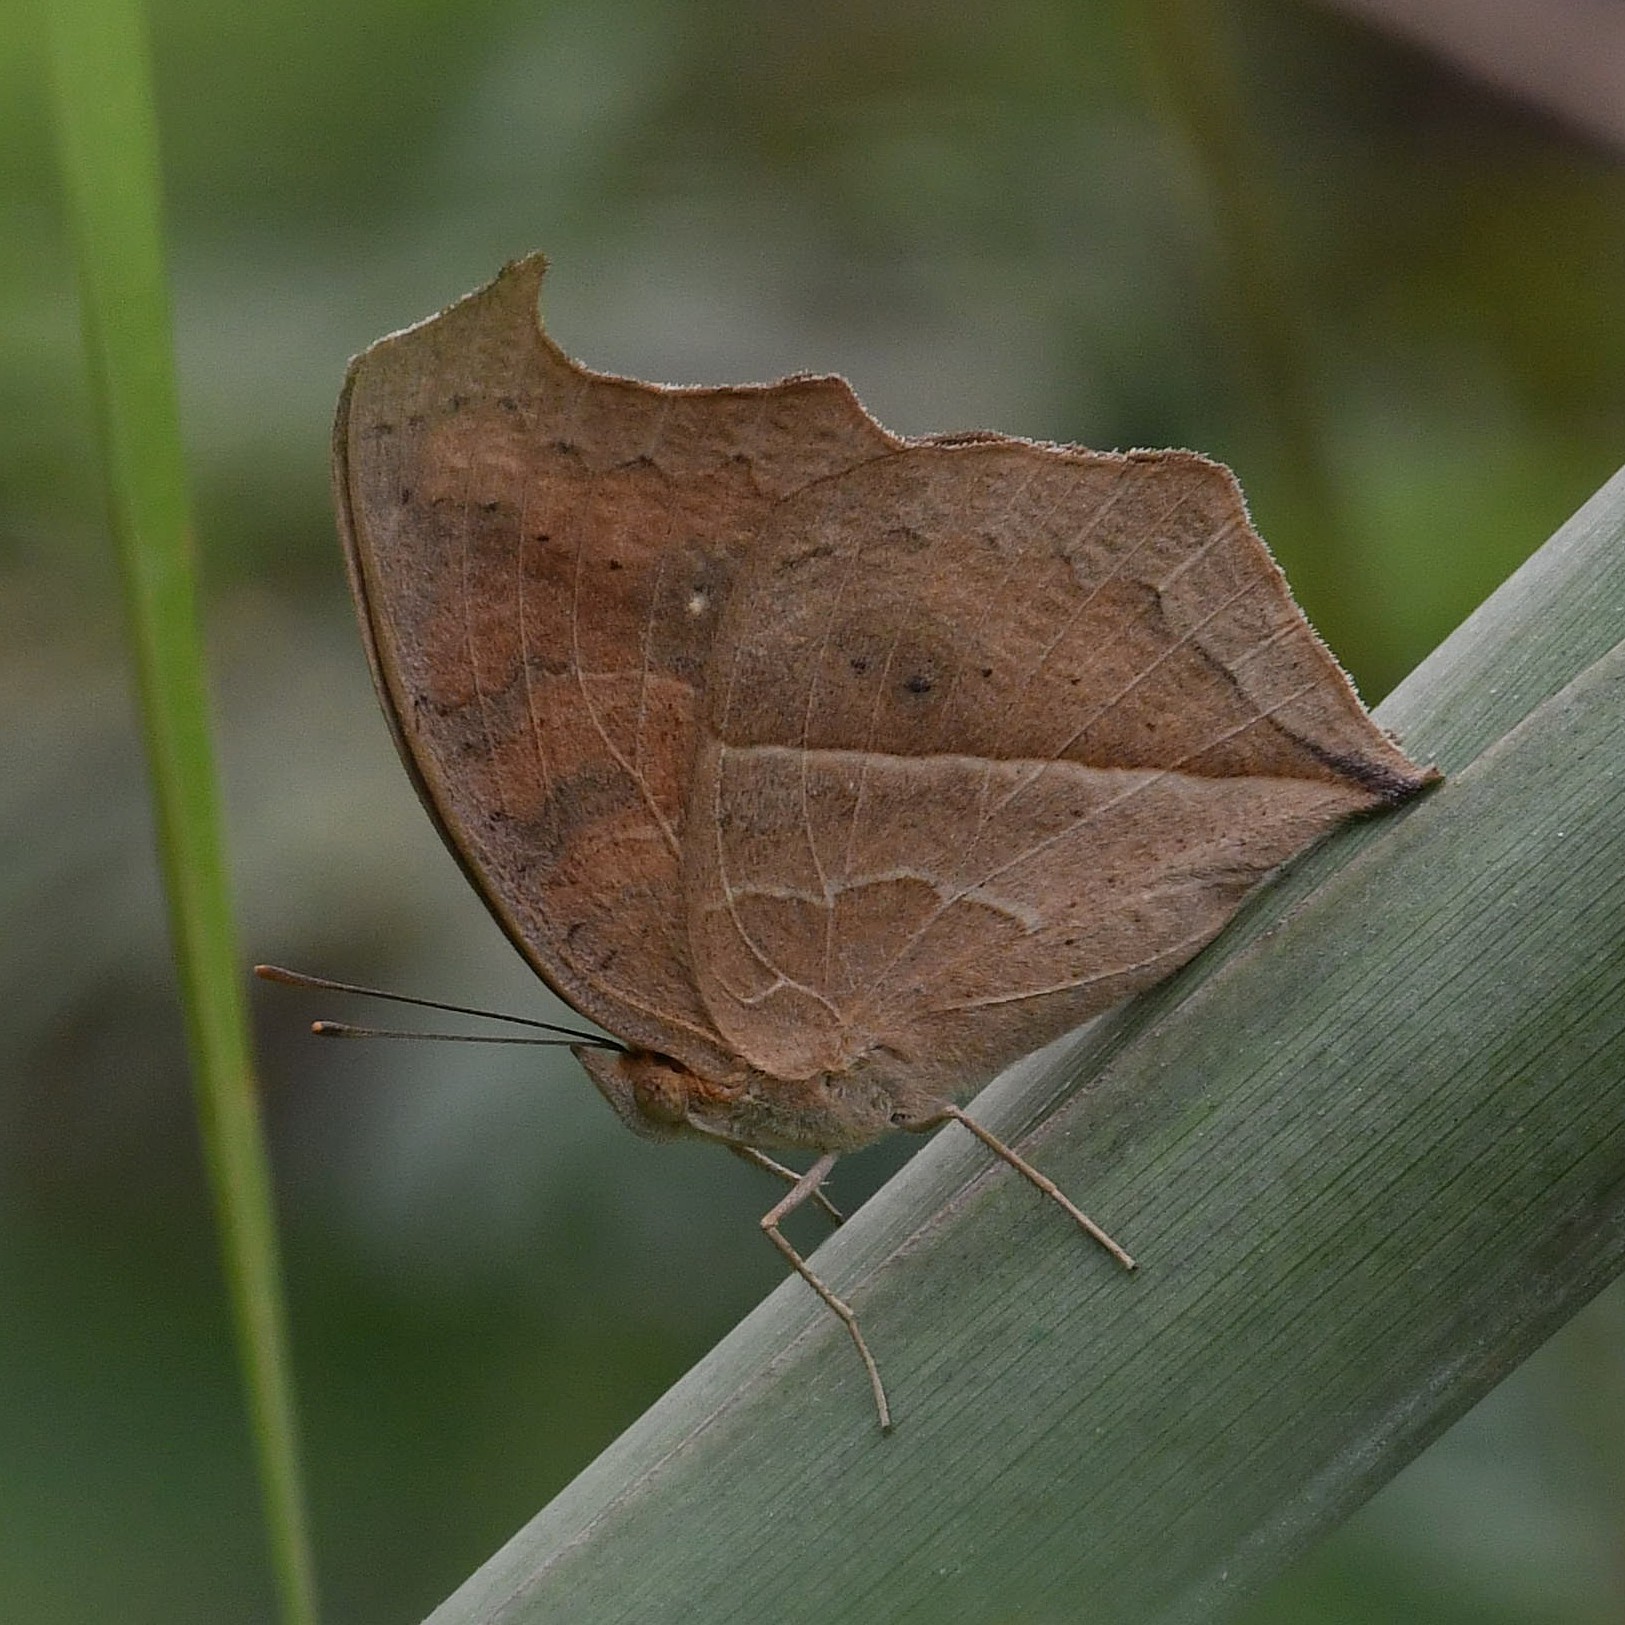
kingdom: Animalia
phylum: Arthropoda
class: Insecta
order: Lepidoptera
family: Nymphalidae
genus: Junonia
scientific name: Junonia almana
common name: Peacock pansy
